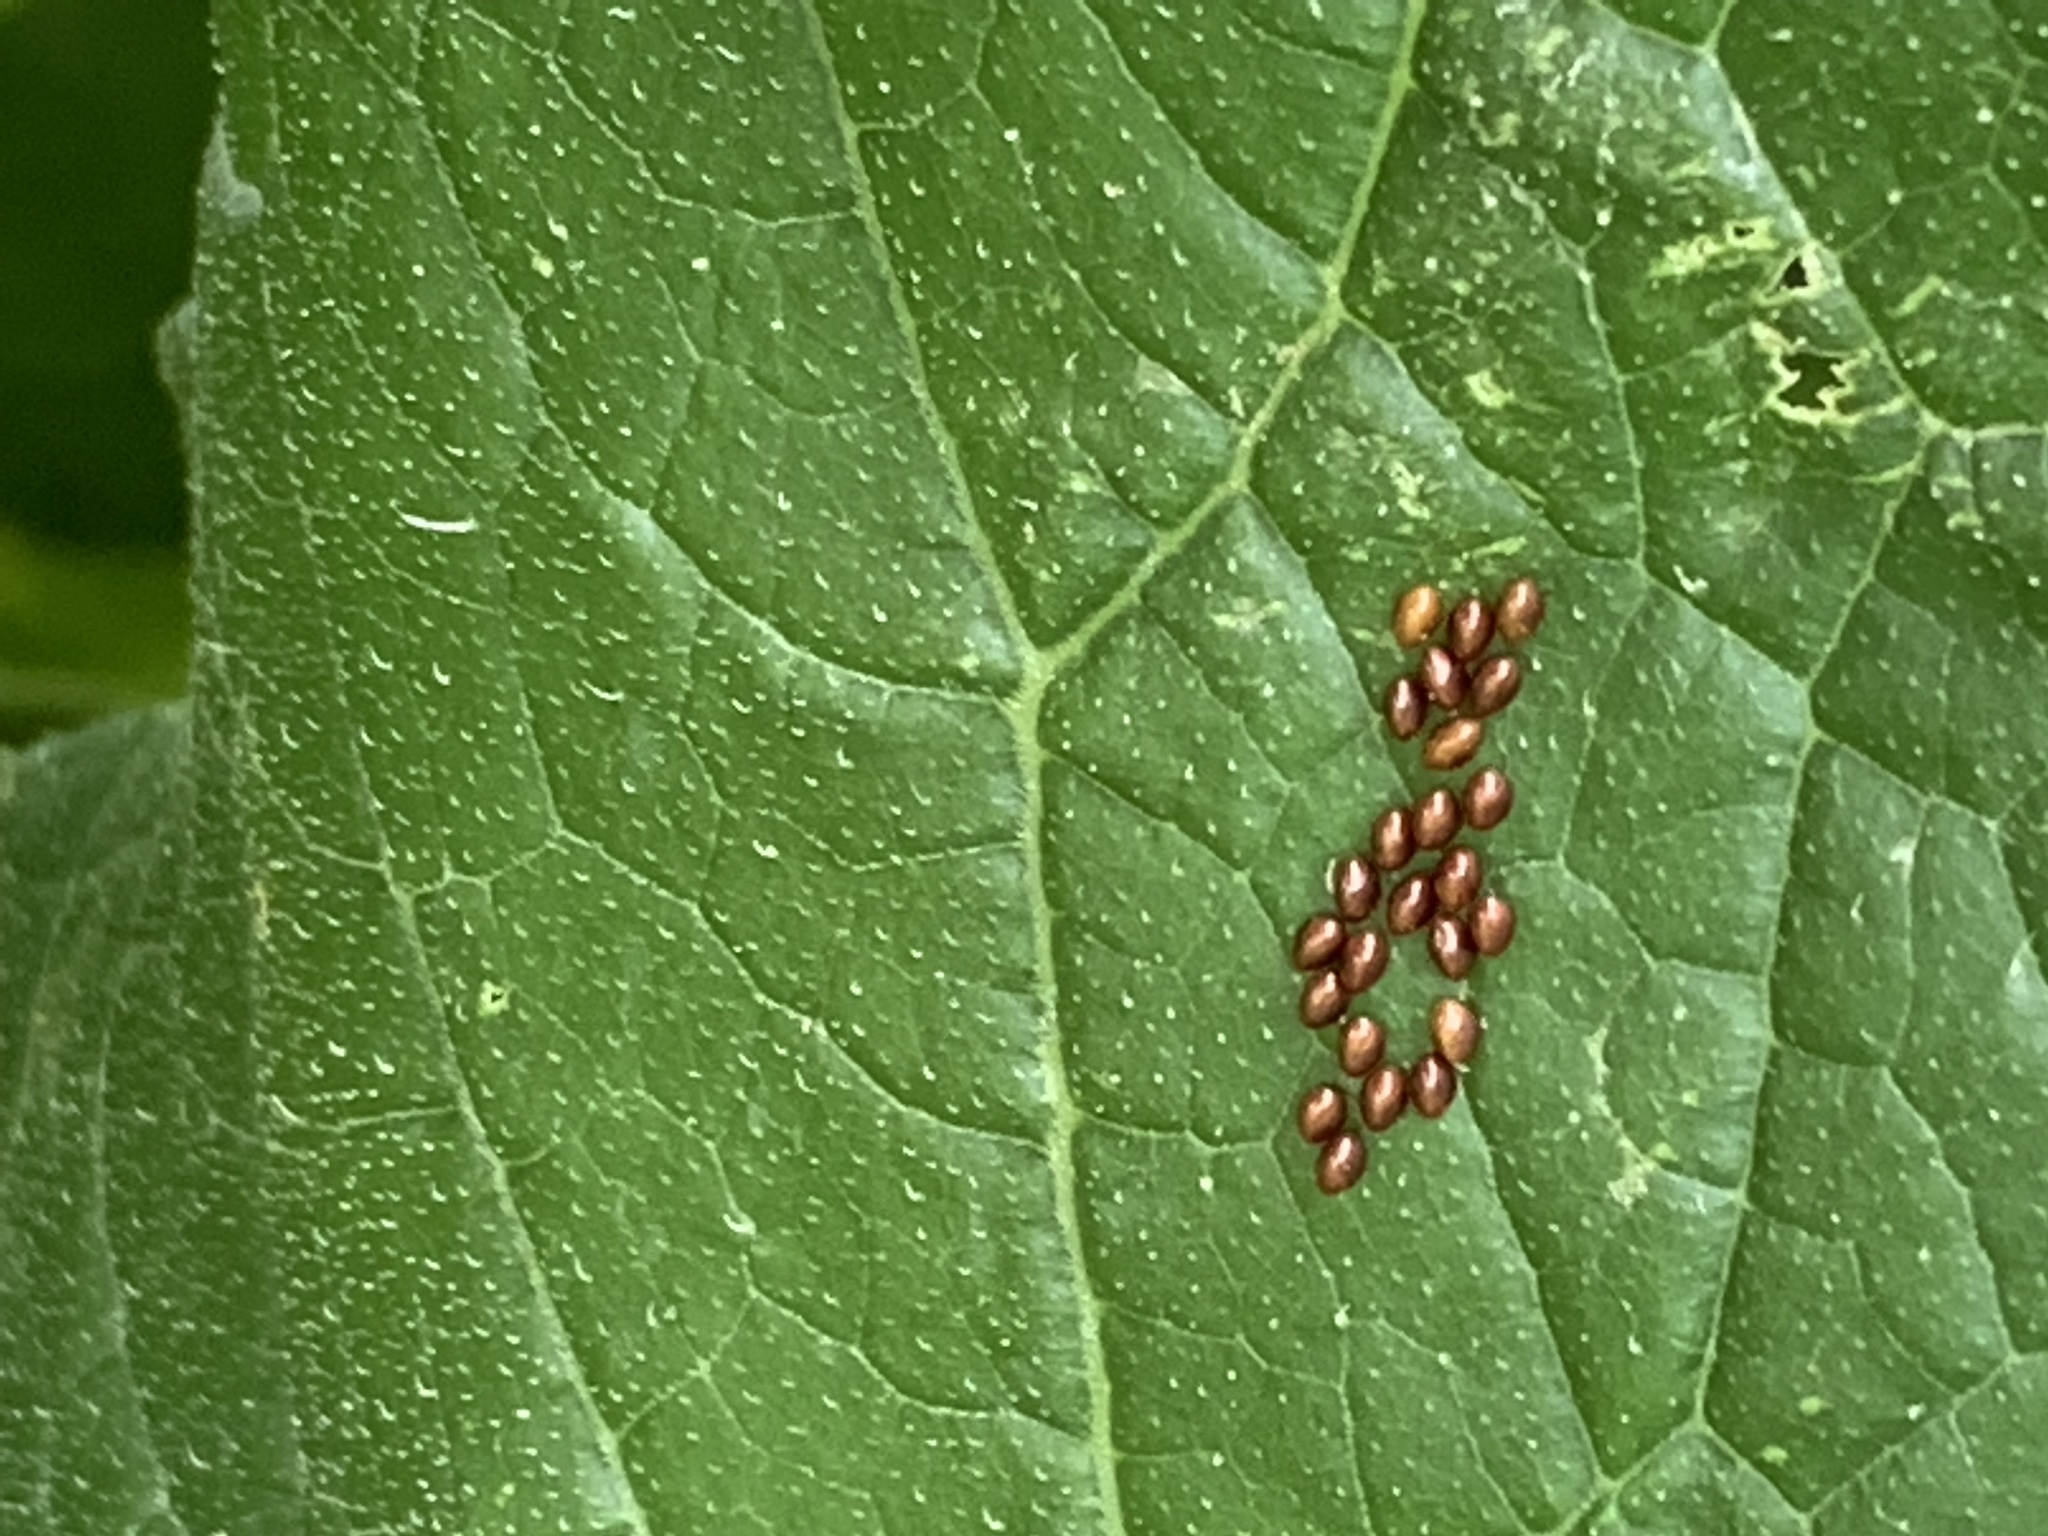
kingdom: Animalia
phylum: Arthropoda
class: Insecta
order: Hemiptera
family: Coreidae
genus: Anasa
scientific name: Anasa tristis
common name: Squash bug
